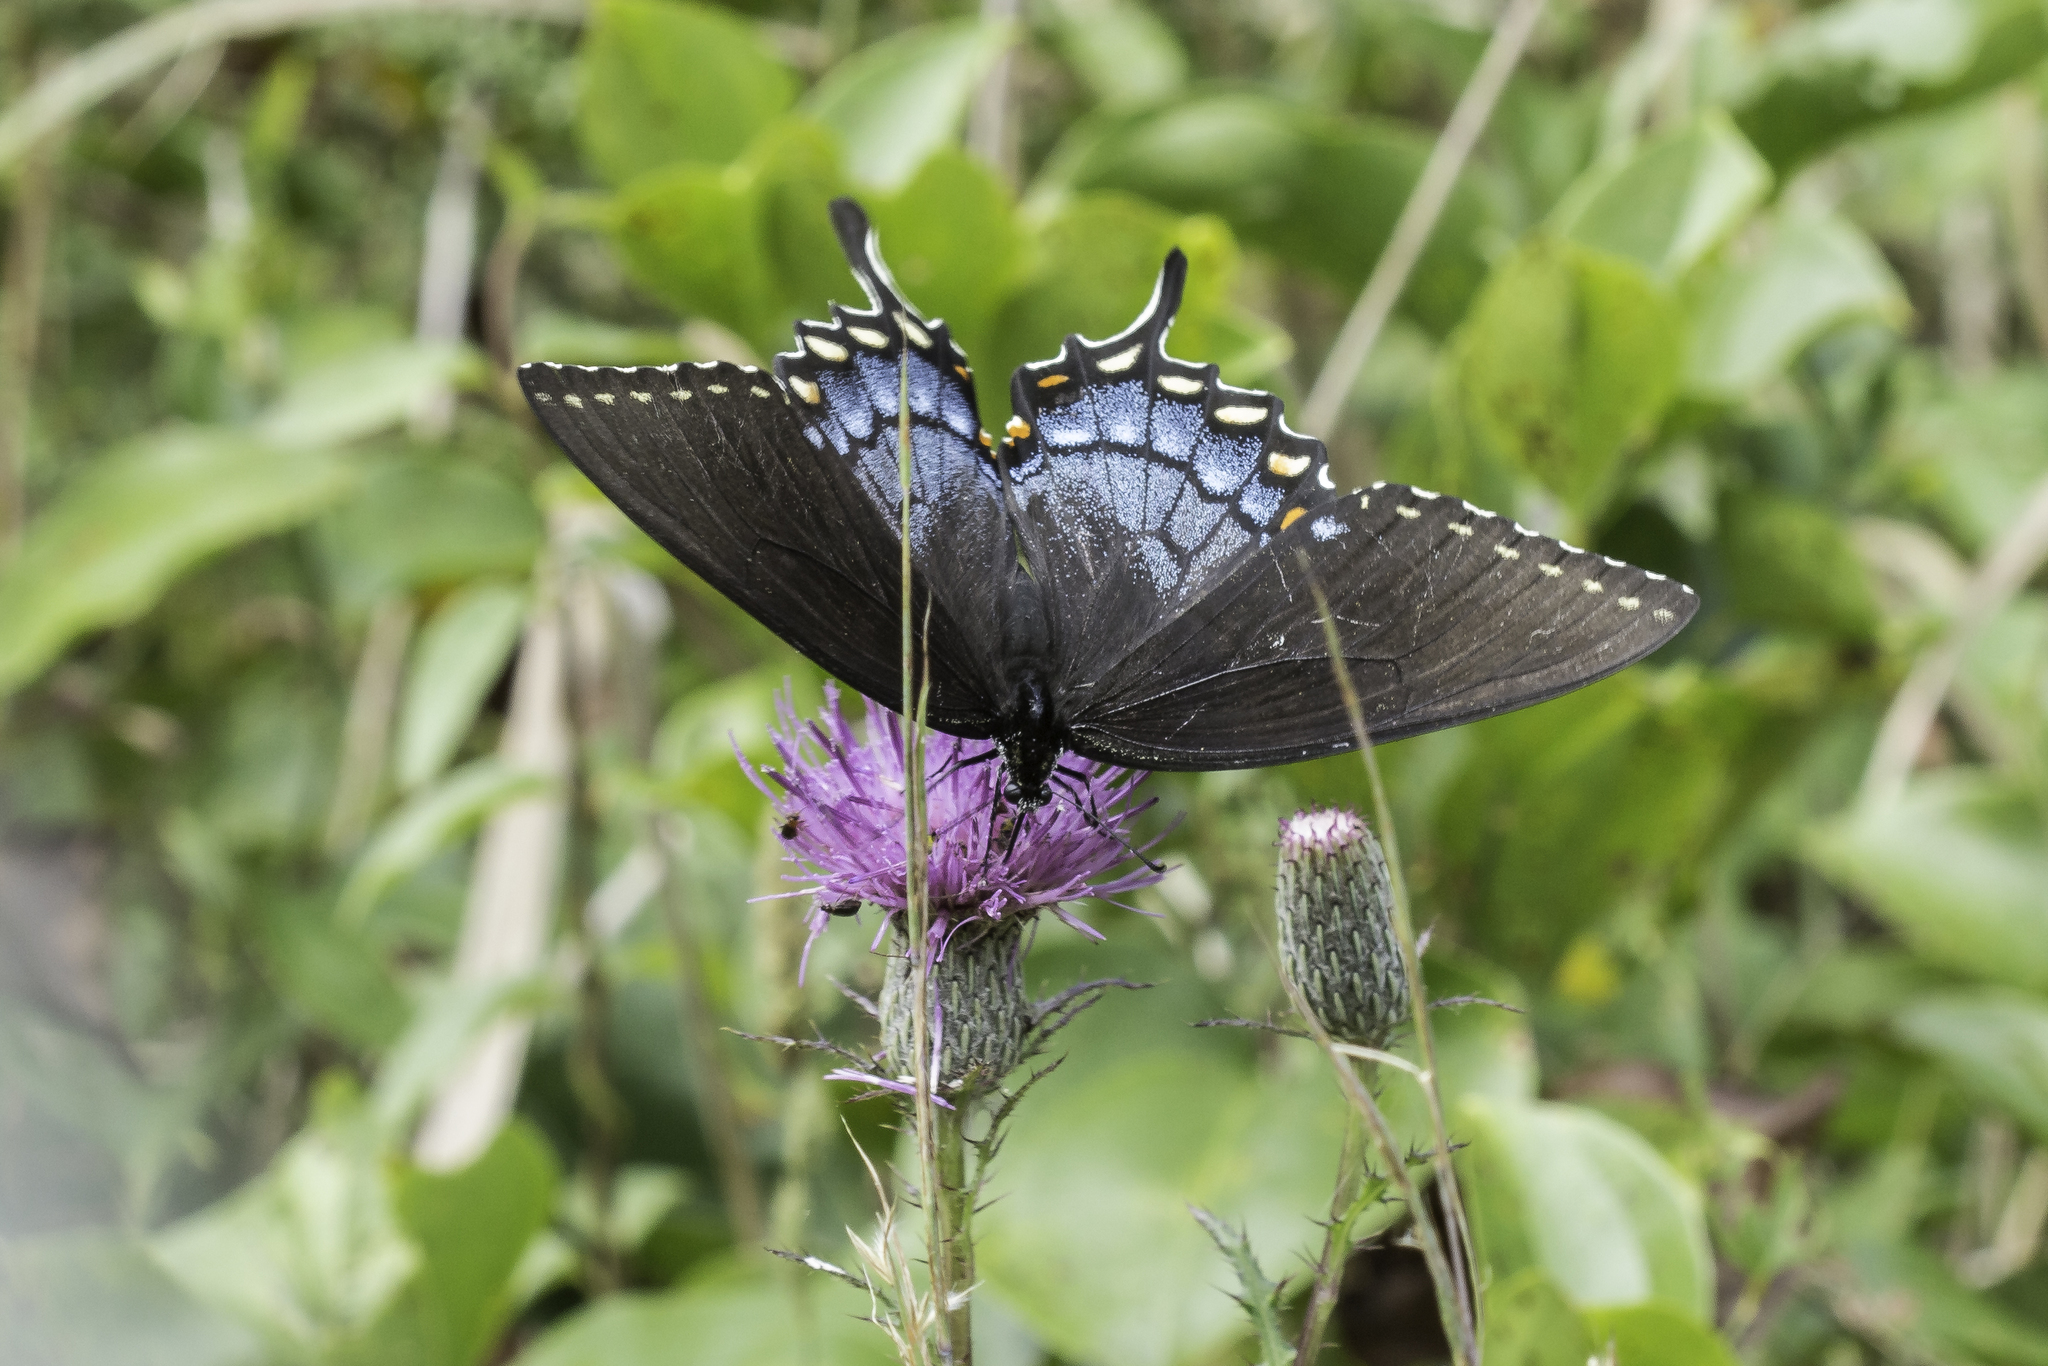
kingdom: Animalia
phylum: Arthropoda
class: Insecta
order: Lepidoptera
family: Papilionidae
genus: Papilio
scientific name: Papilio glaucus
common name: Tiger swallowtail
